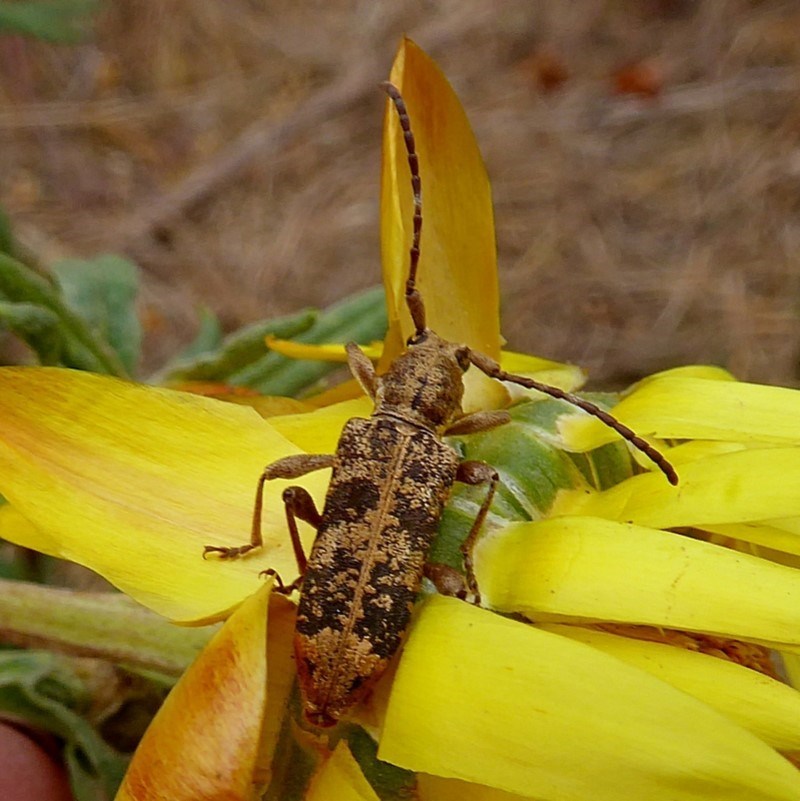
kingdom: Animalia
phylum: Arthropoda
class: Insecta
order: Coleoptera
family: Cerambycidae
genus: Pempsamacra
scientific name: Pempsamacra dispersa
